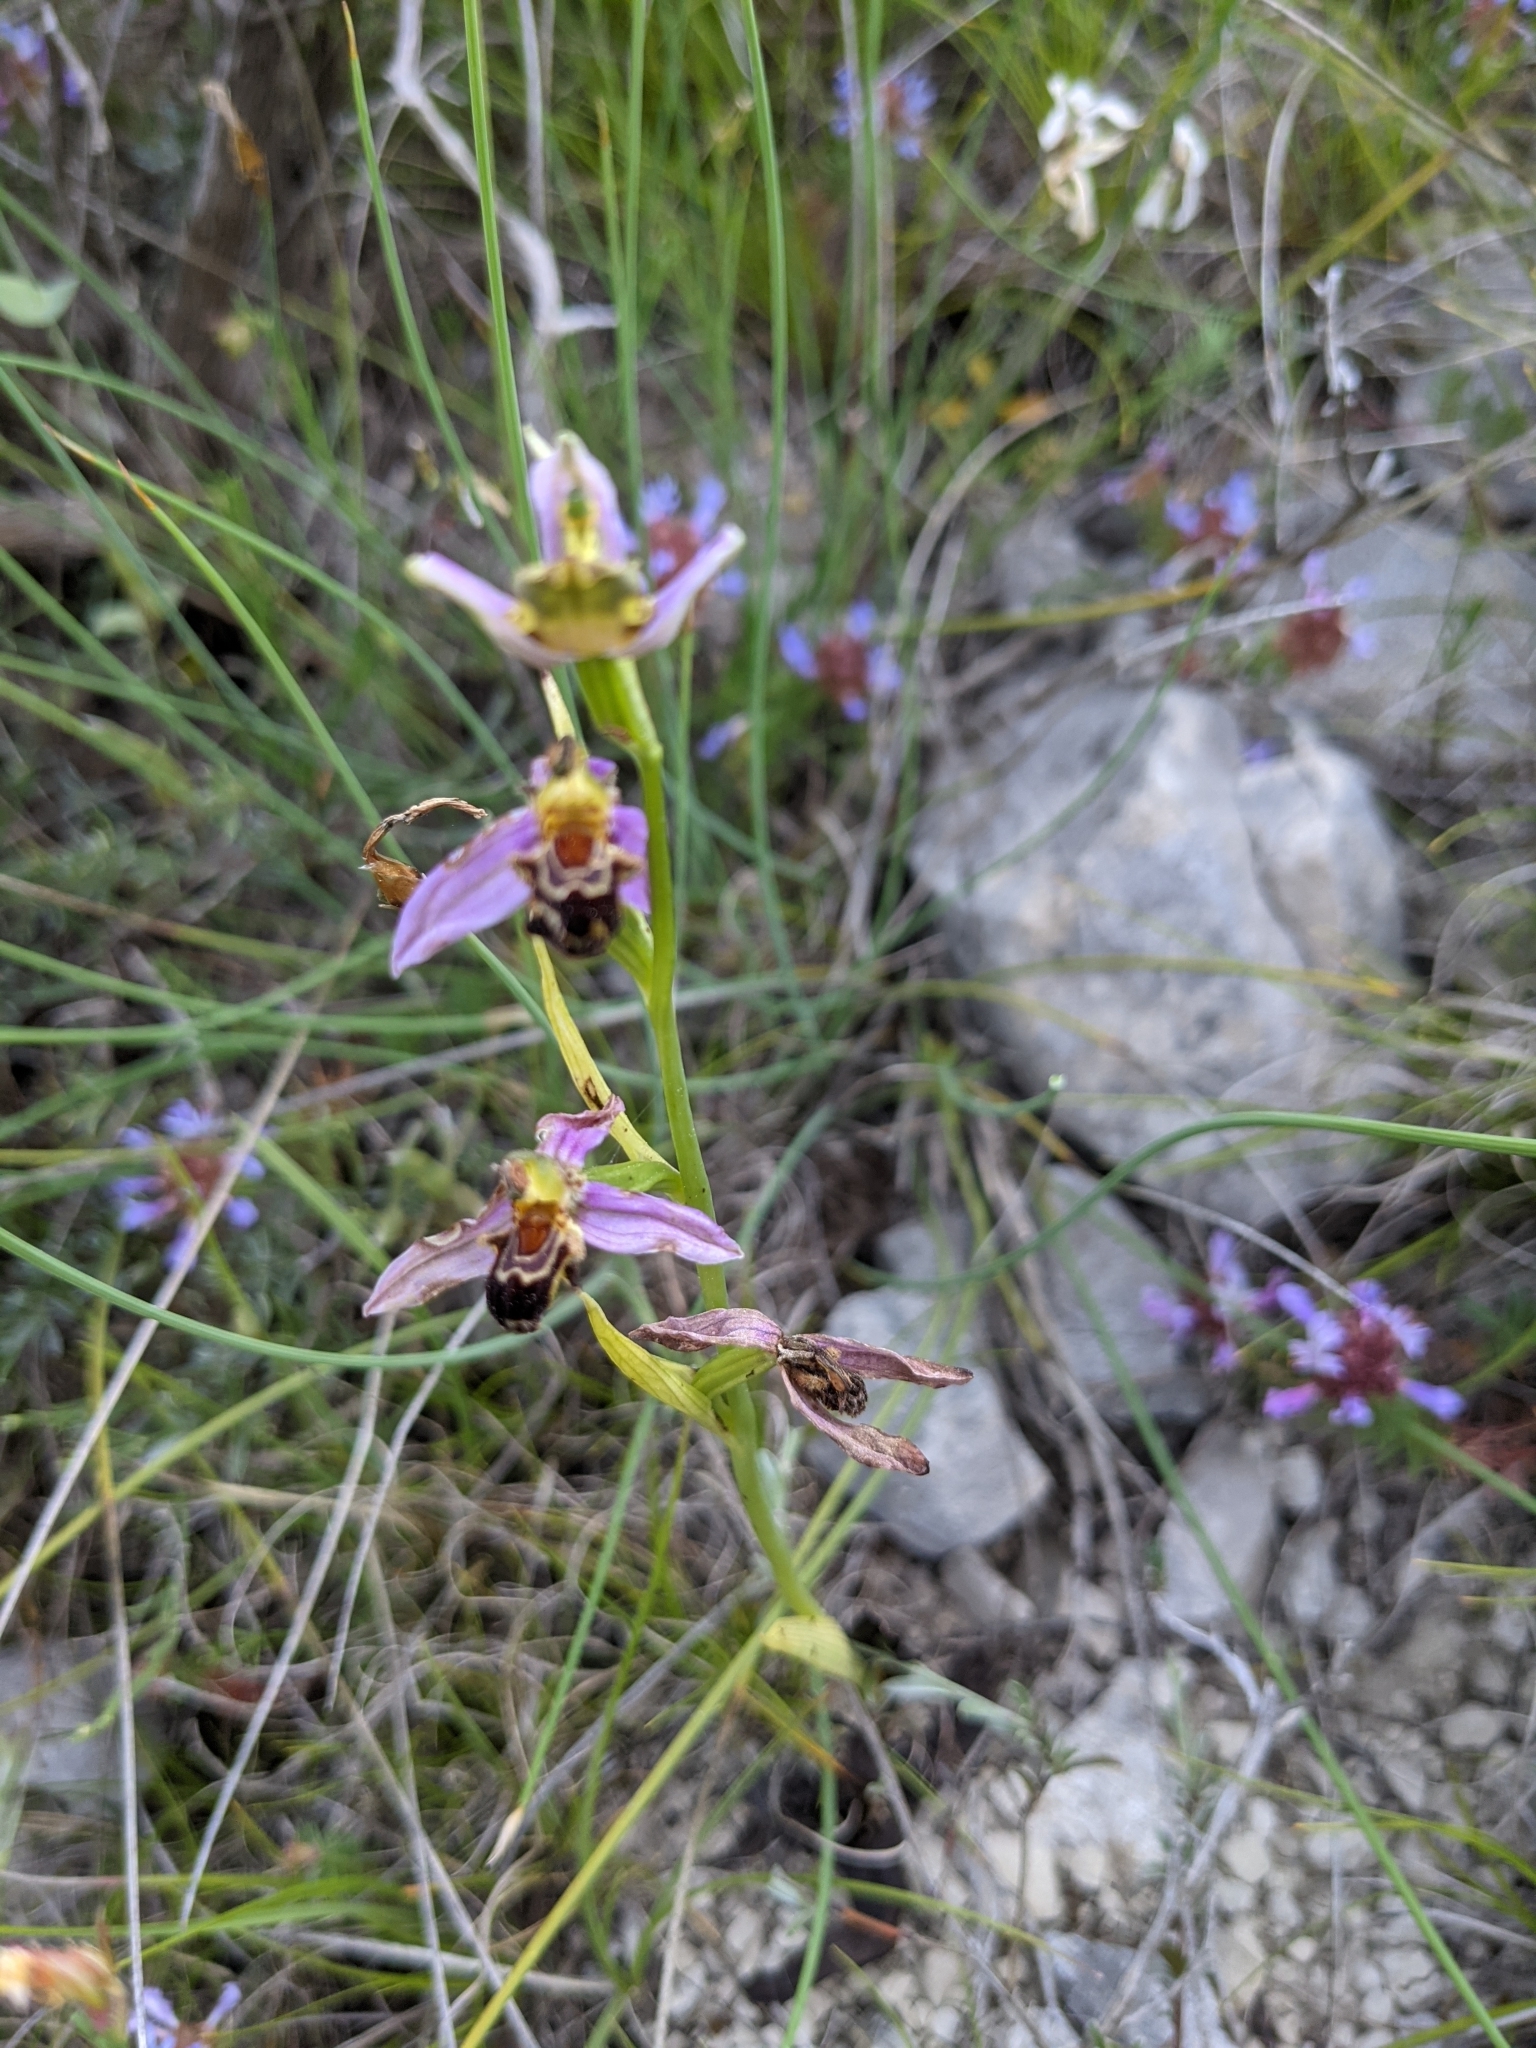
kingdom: Plantae
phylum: Tracheophyta
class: Liliopsida
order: Asparagales
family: Orchidaceae
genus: Ophrys
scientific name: Ophrys apifera
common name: Bee orchid
